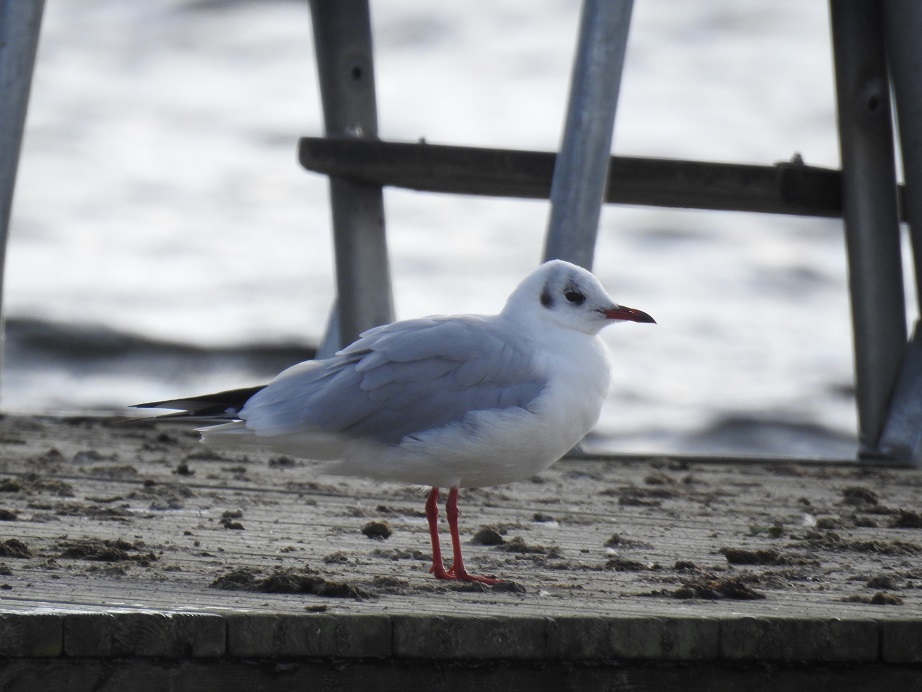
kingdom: Animalia
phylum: Chordata
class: Aves
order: Charadriiformes
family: Laridae
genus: Chroicocephalus
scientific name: Chroicocephalus ridibundus
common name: Black-headed gull
